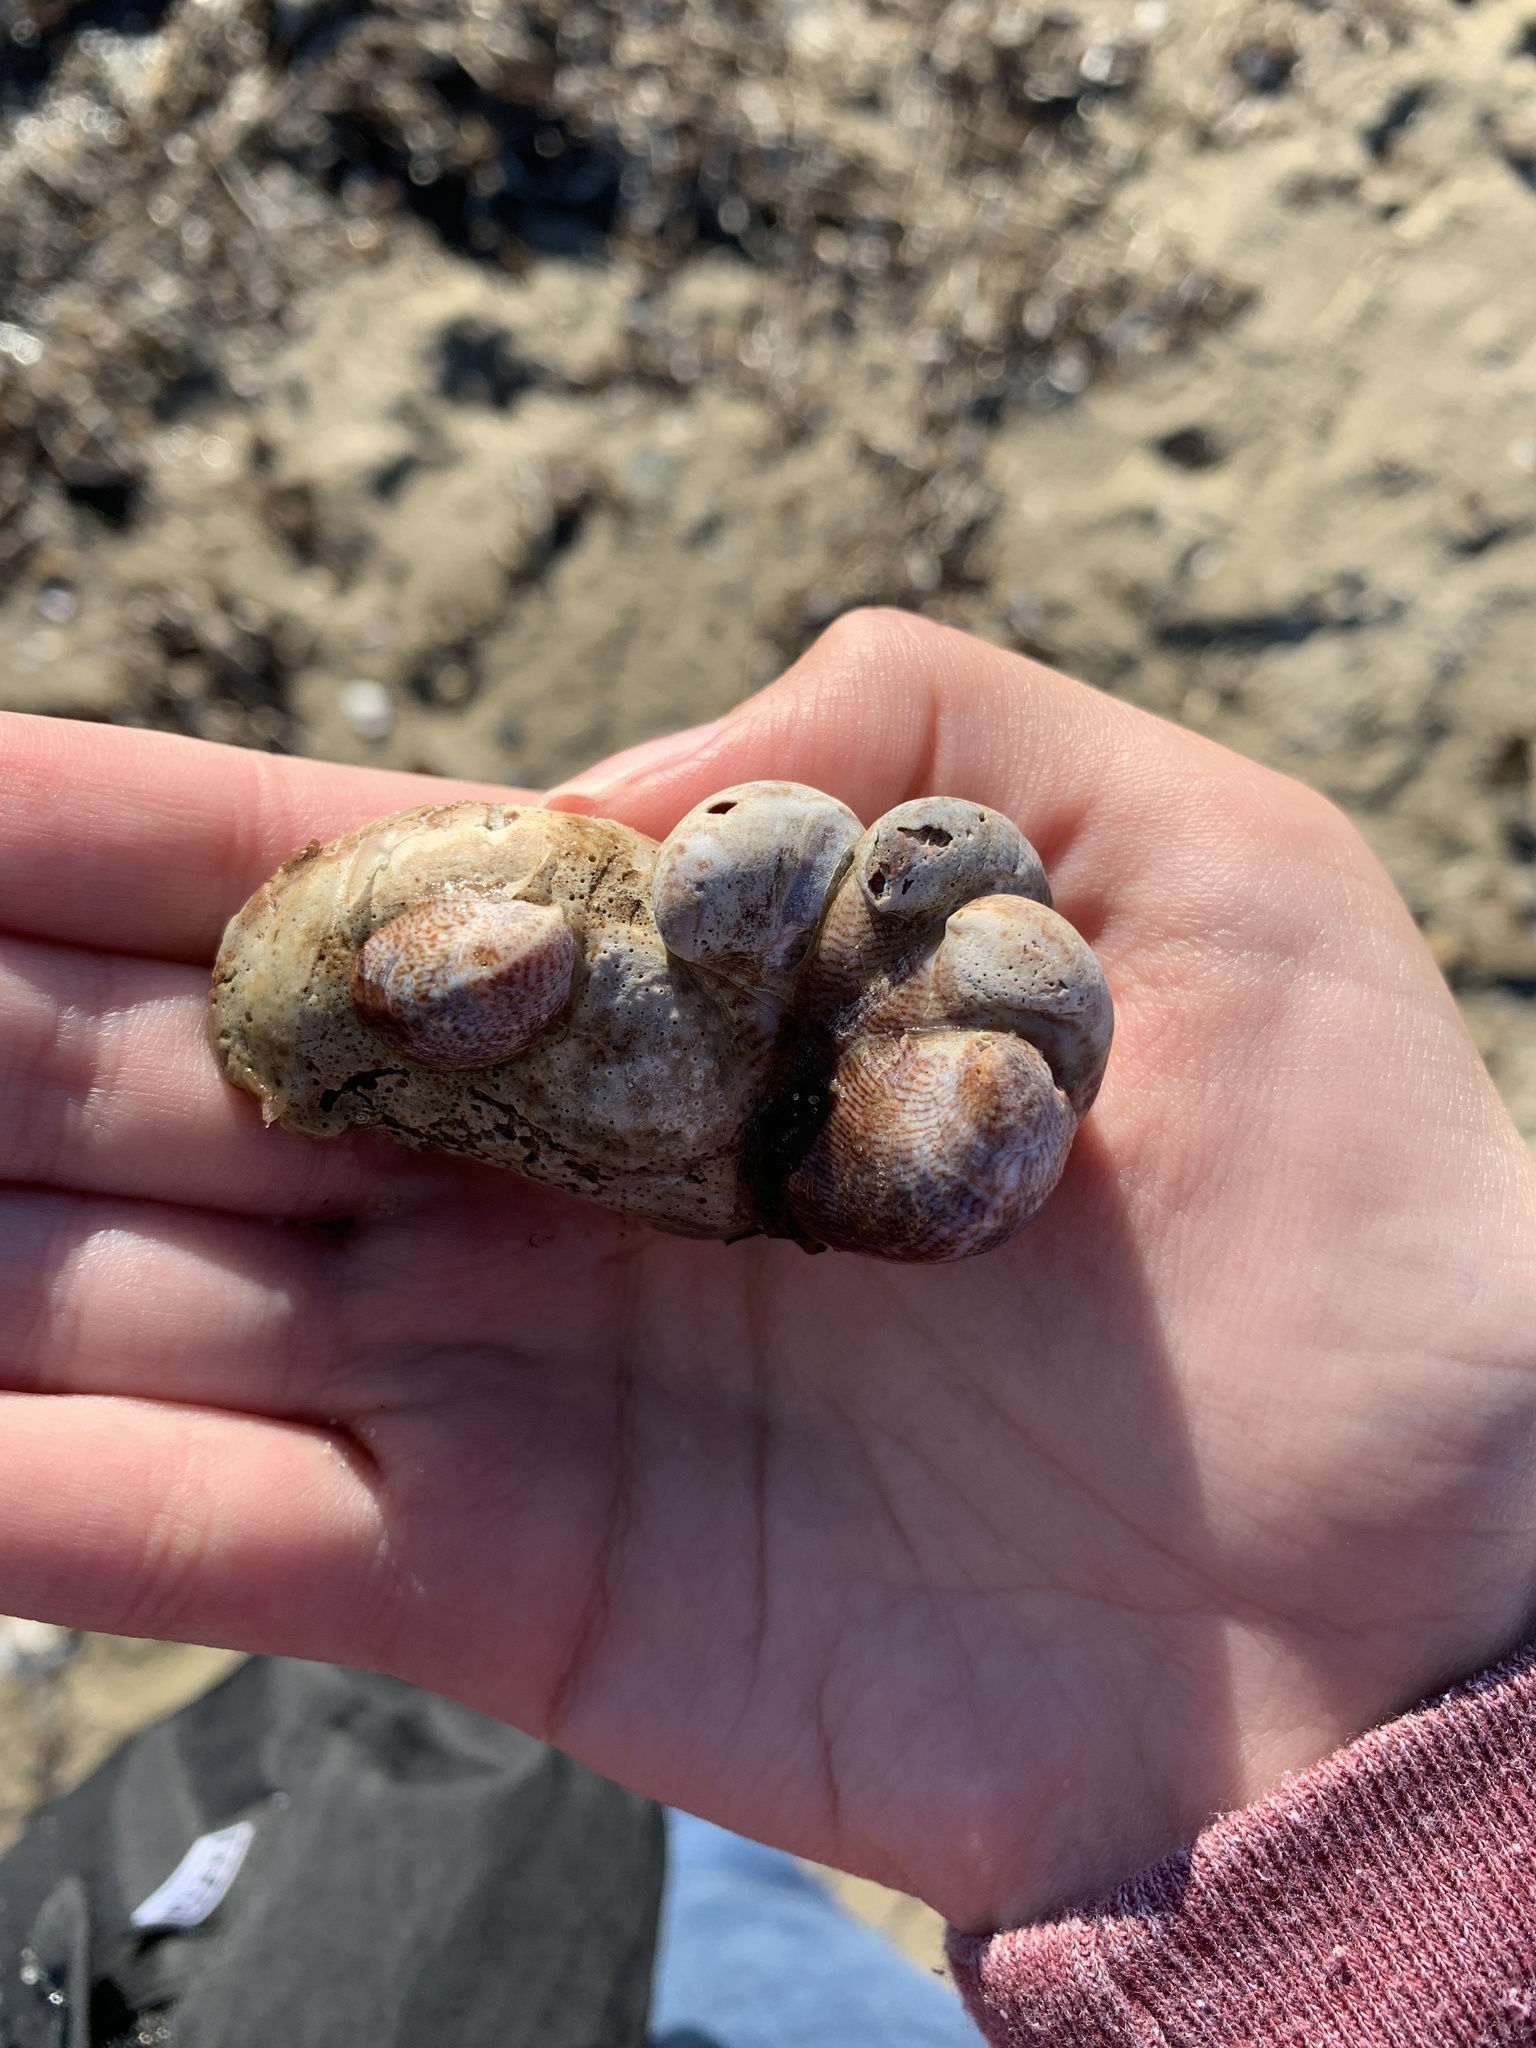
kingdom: Animalia
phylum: Mollusca
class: Gastropoda
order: Littorinimorpha
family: Calyptraeidae
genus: Crepidula
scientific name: Crepidula fornicata
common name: Slipper limpet
